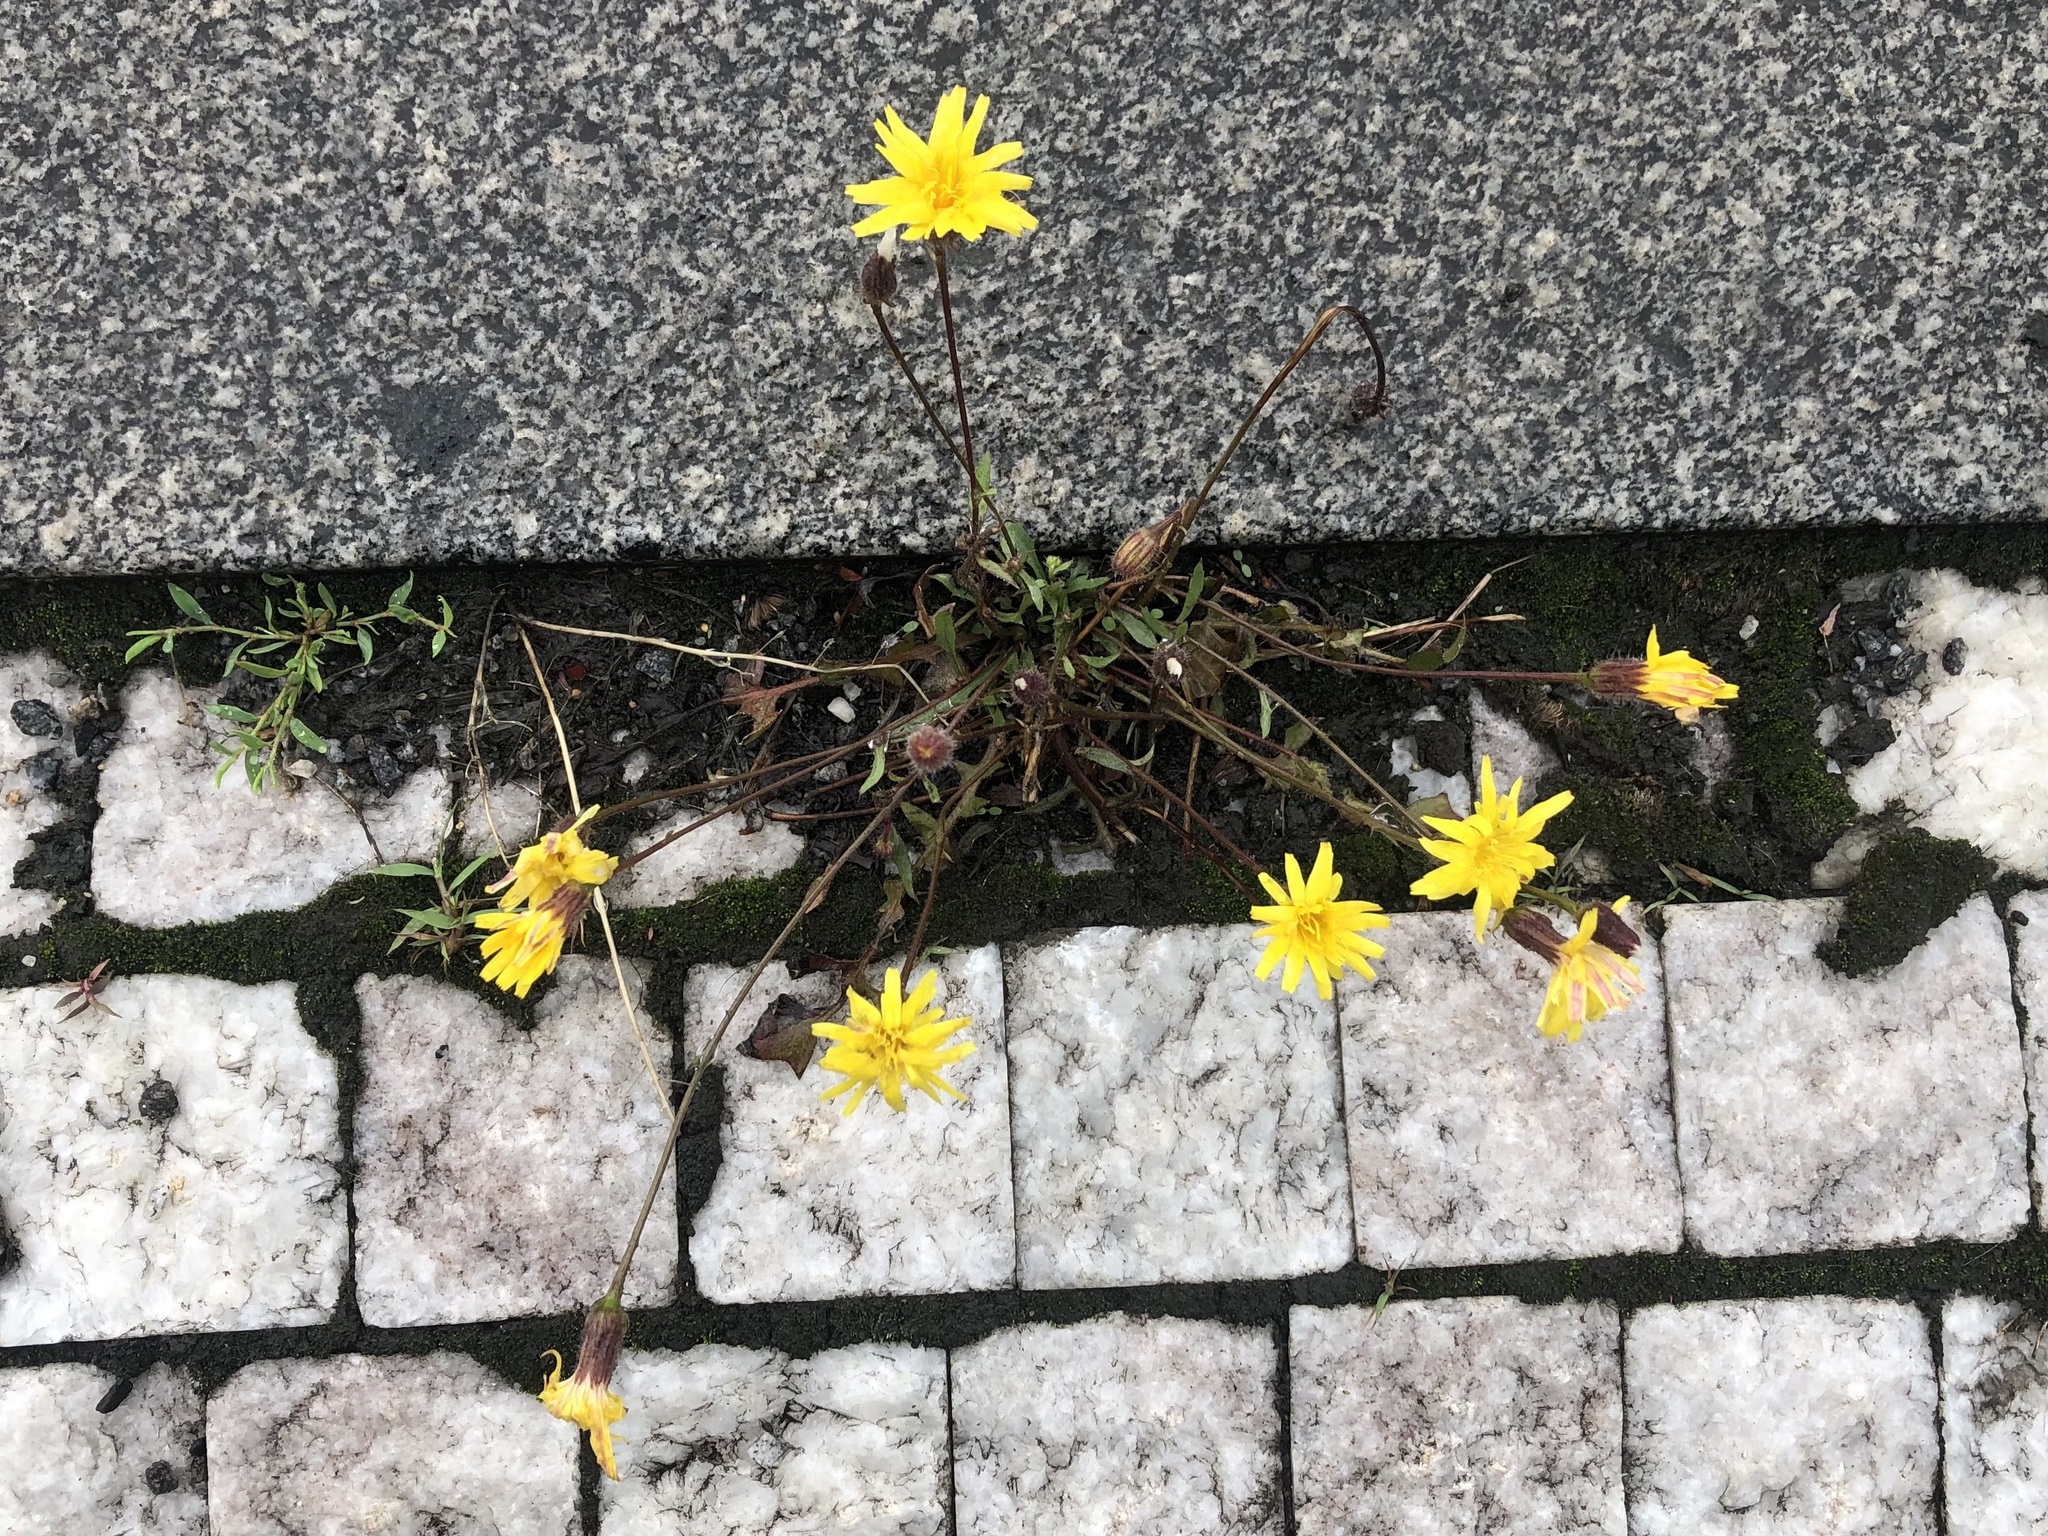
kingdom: Plantae
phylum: Tracheophyta
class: Magnoliopsida
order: Asterales
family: Asteraceae
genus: Crepis
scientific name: Crepis foetida
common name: Stinking hawk's-beard
